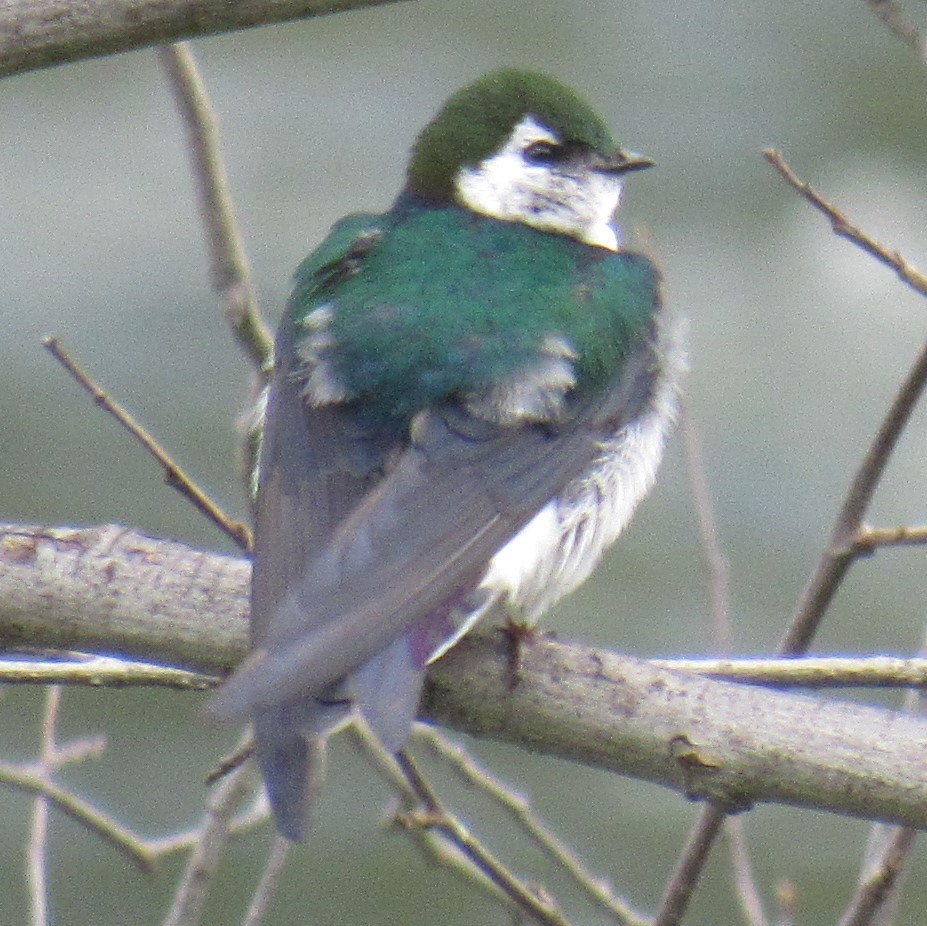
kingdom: Animalia
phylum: Chordata
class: Aves
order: Passeriformes
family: Hirundinidae
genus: Tachycineta
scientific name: Tachycineta thalassina
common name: Violet-green swallow
